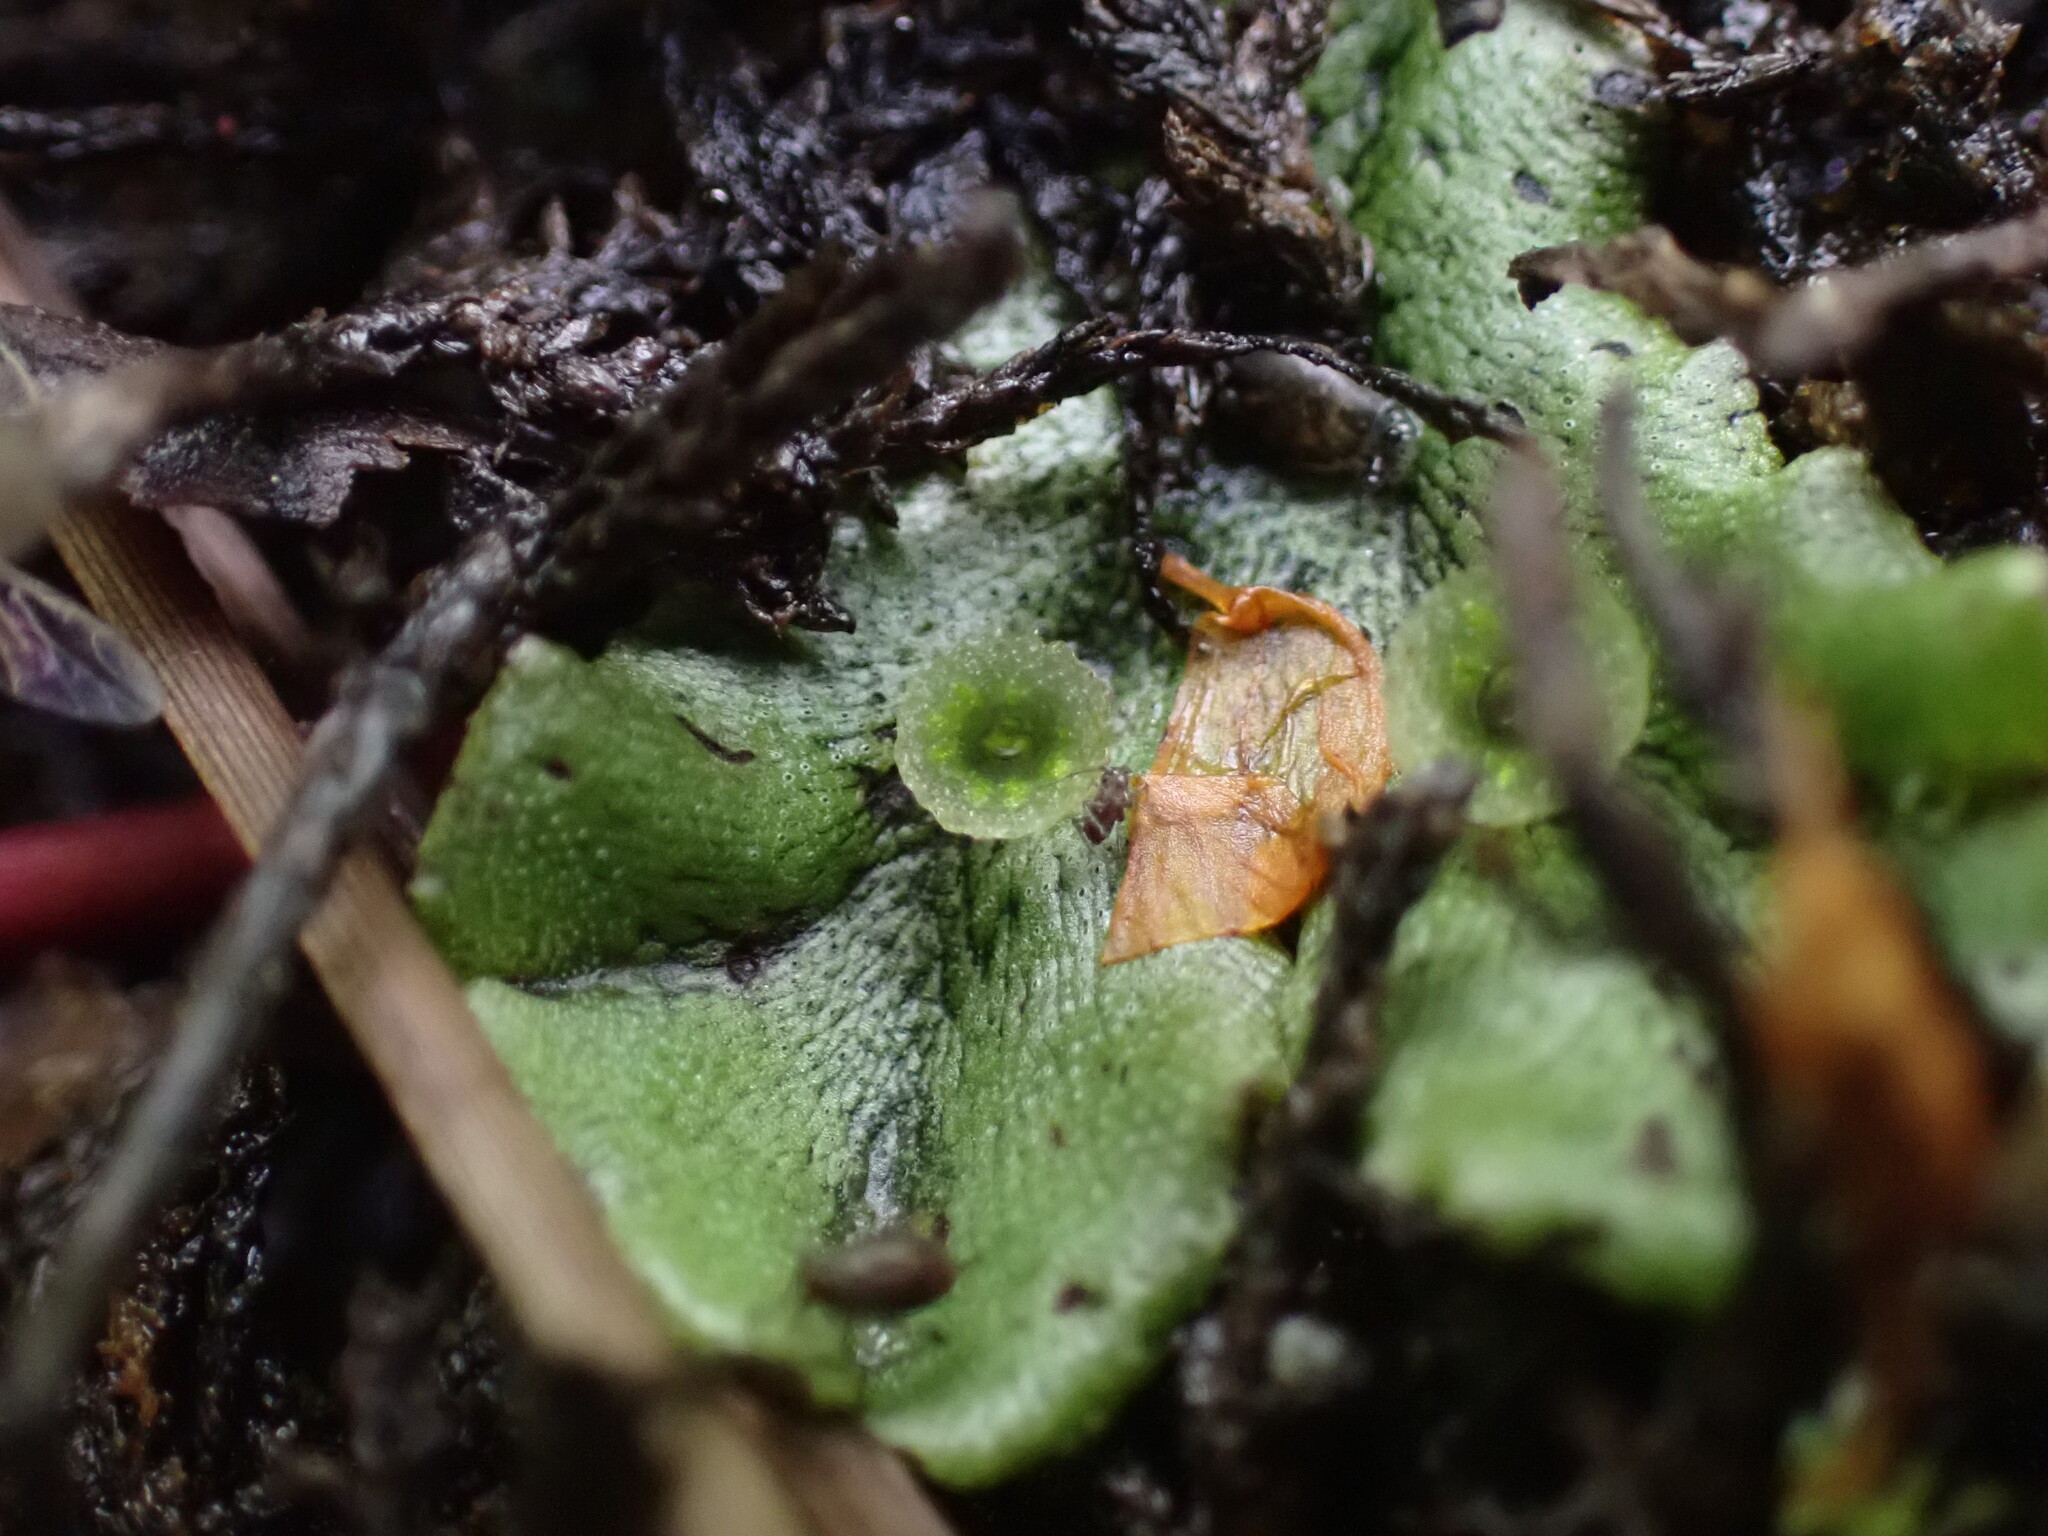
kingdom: Plantae
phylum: Marchantiophyta
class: Marchantiopsida
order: Marchantiales
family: Marchantiaceae
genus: Marchantia
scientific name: Marchantia polymorpha
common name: Common liverwort
